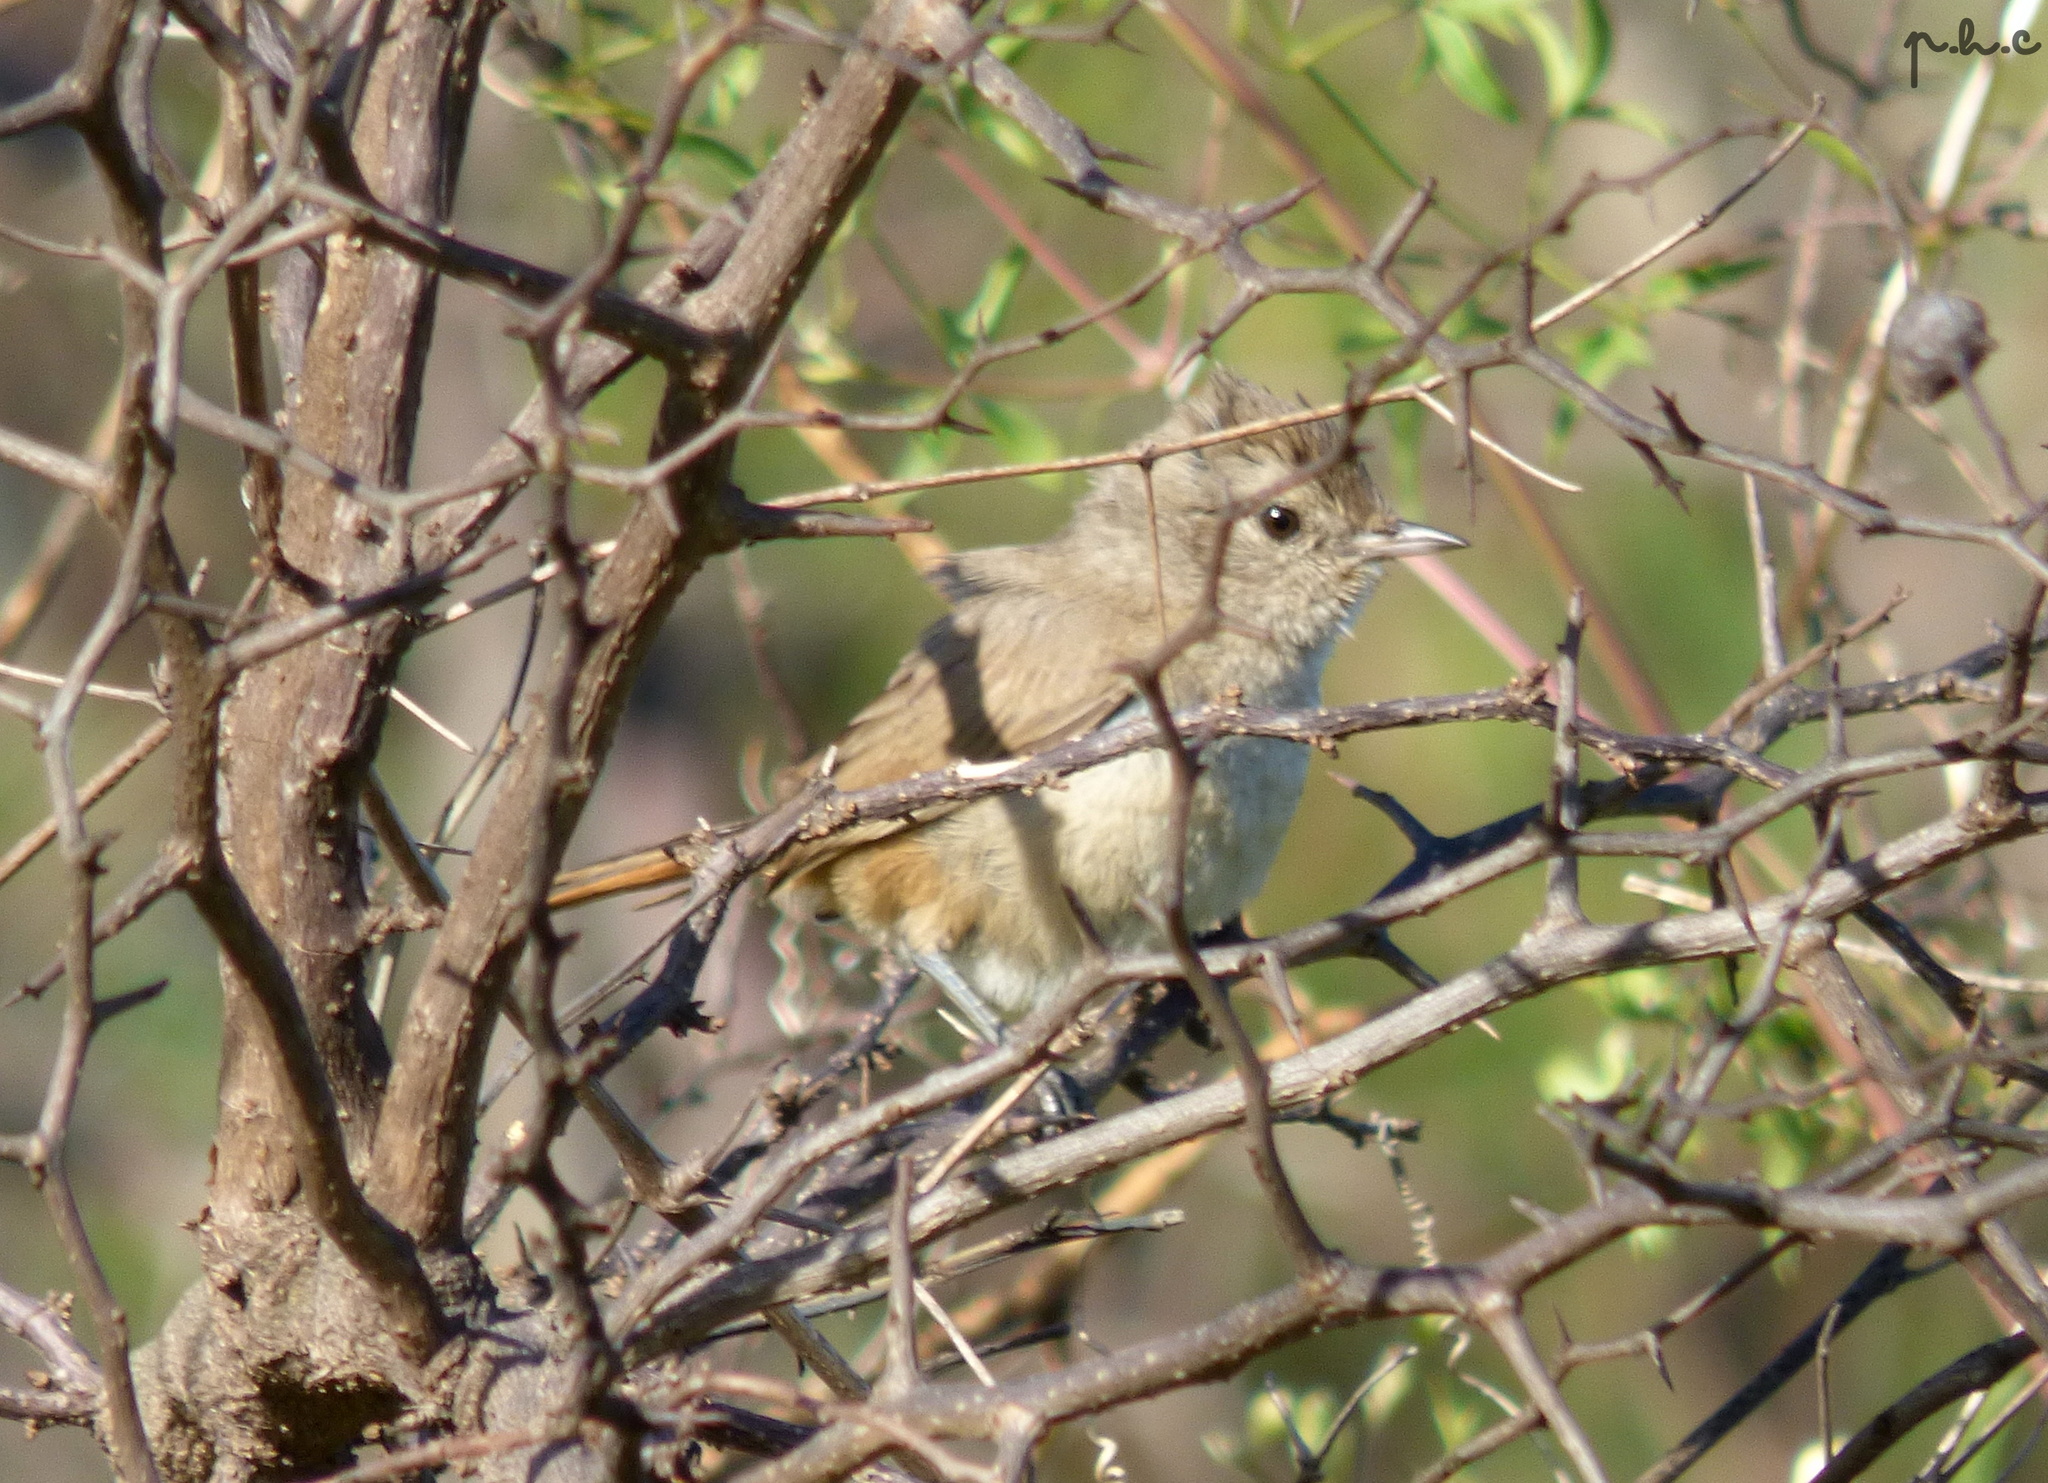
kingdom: Animalia
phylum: Chordata
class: Aves
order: Passeriformes
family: Furnariidae
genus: Asthenes
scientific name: Asthenes baeri
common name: Short-billed canastero
